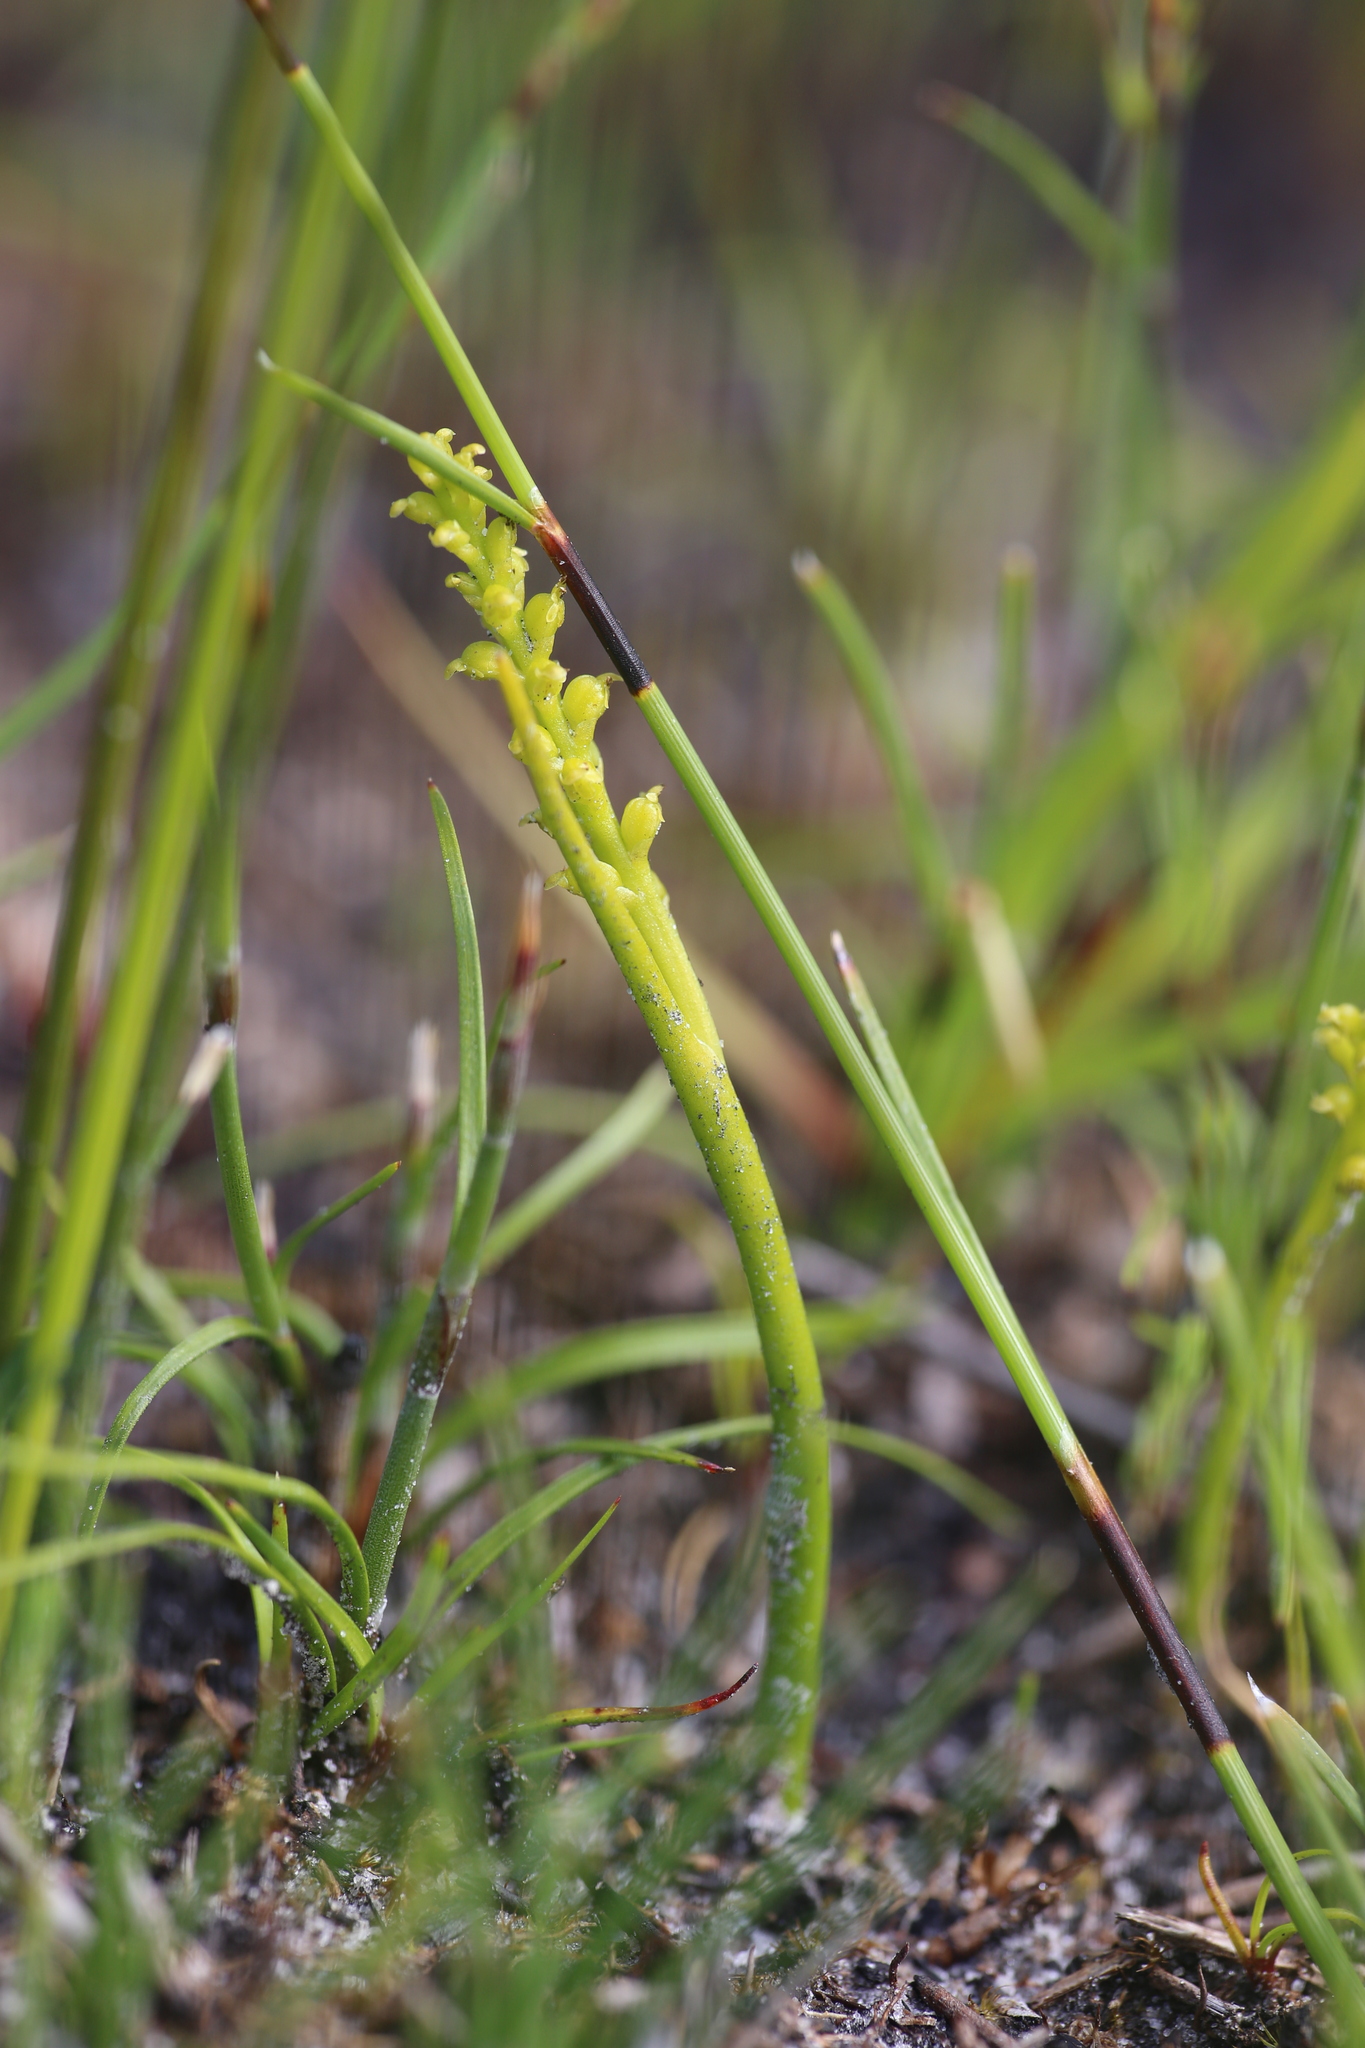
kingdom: Plantae
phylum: Tracheophyta
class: Liliopsida
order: Asparagales
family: Orchidaceae
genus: Microtis
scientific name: Microtis atrata
